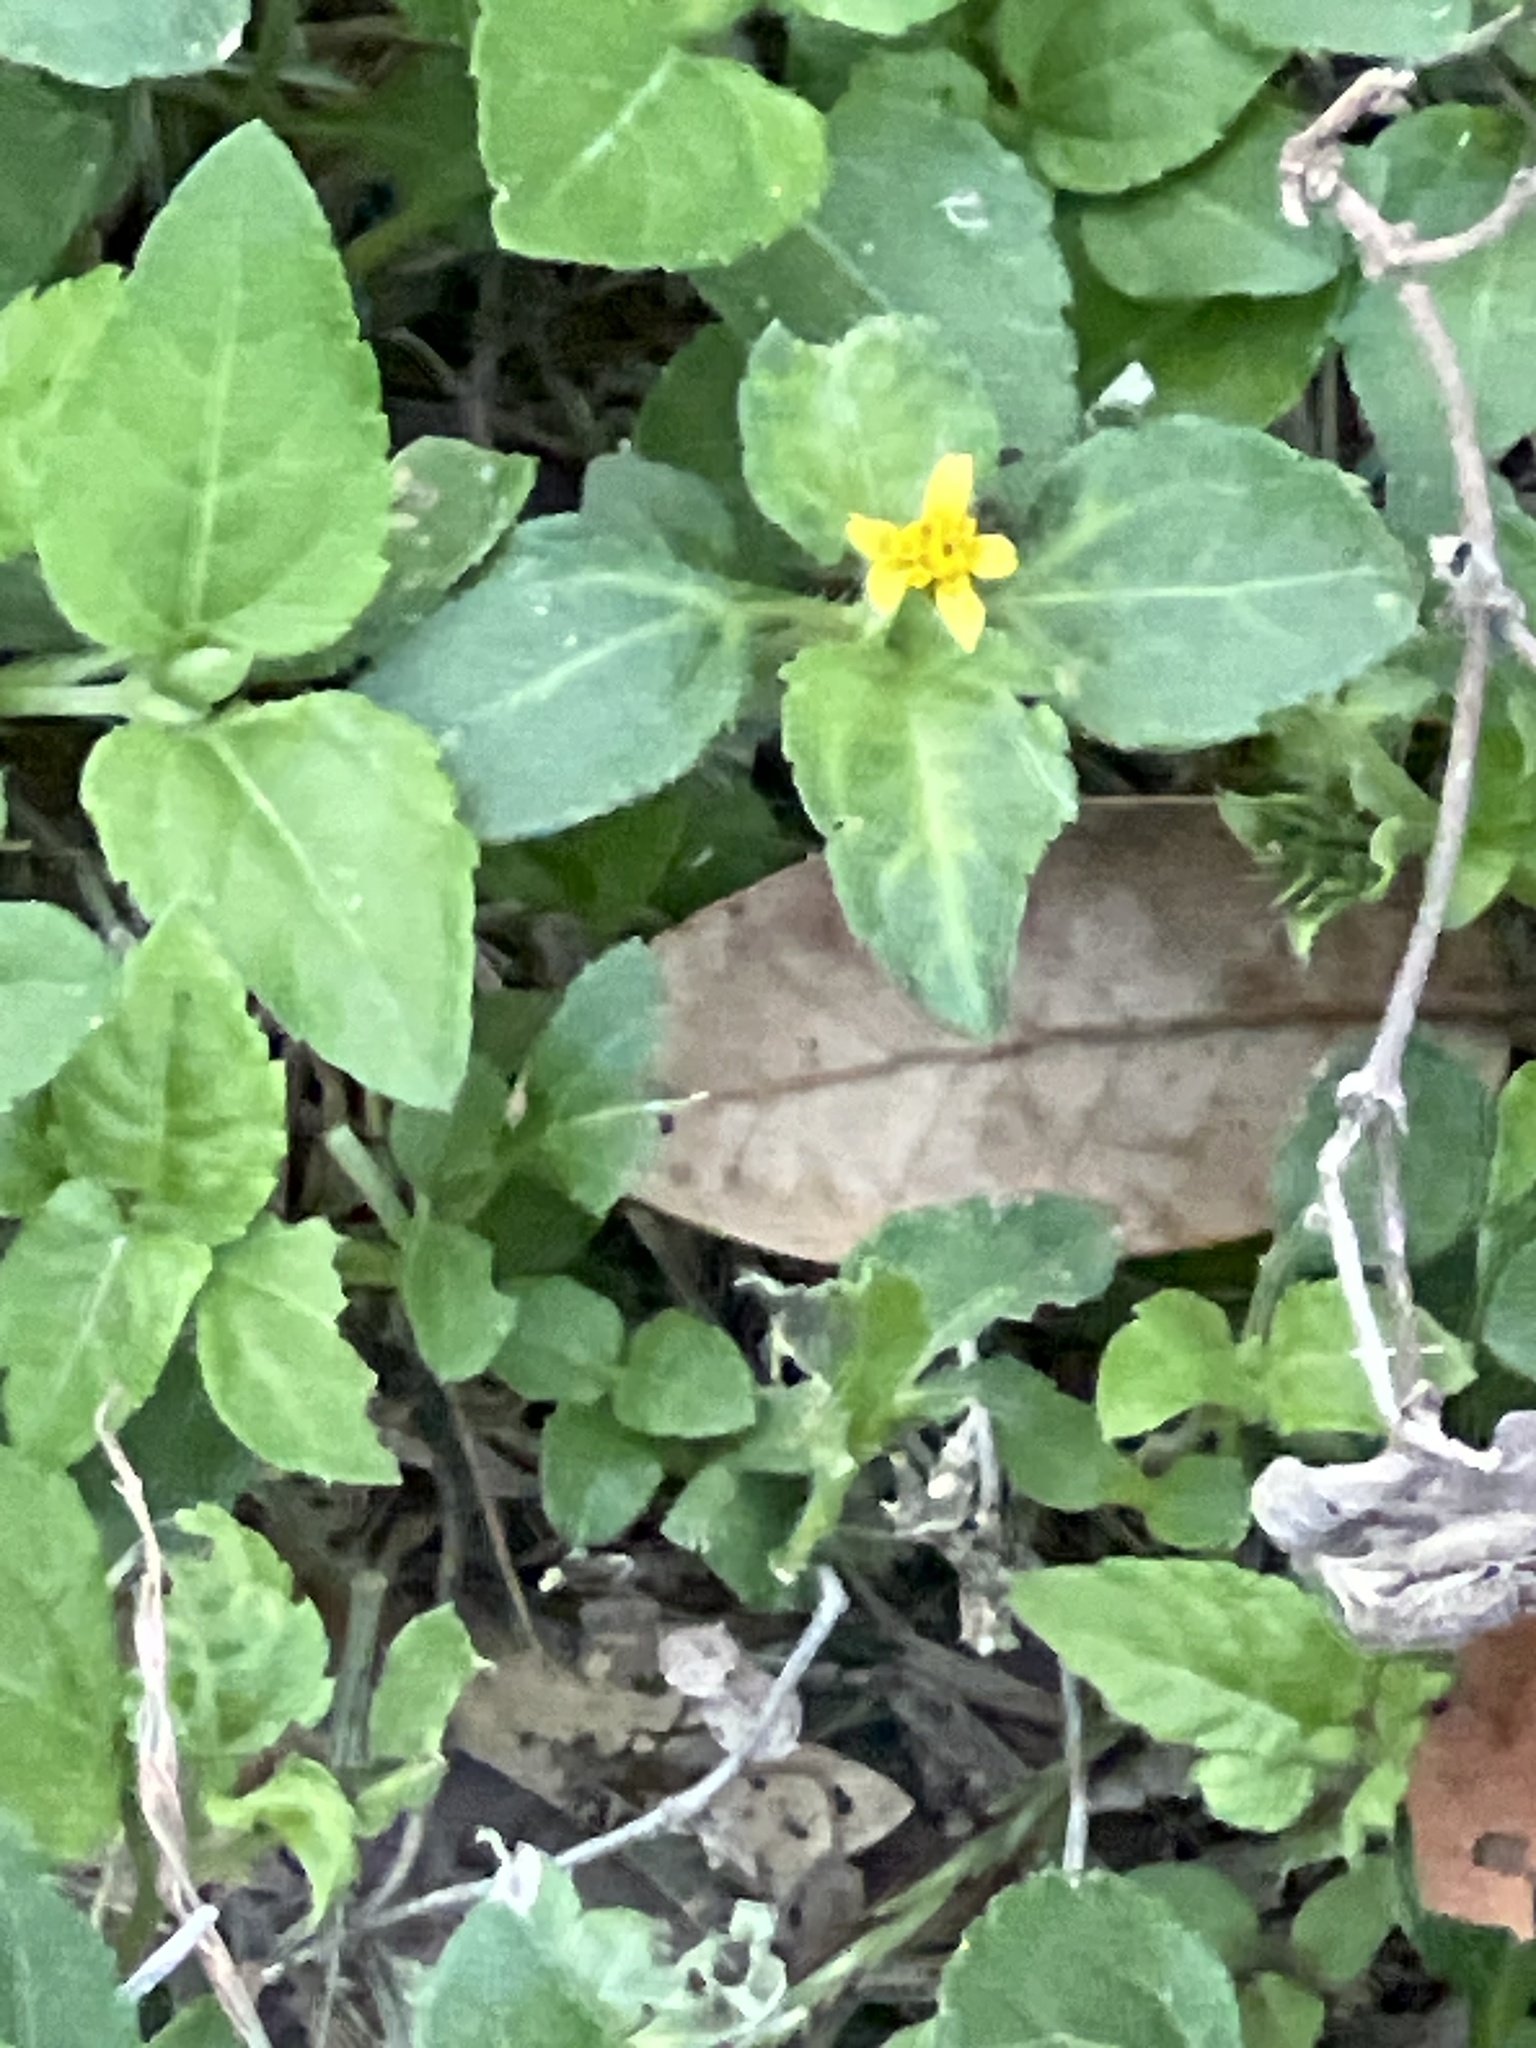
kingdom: Plantae
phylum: Tracheophyta
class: Magnoliopsida
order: Asterales
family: Asteraceae
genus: Calyptocarpus
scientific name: Calyptocarpus vialis
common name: Straggler daisy
